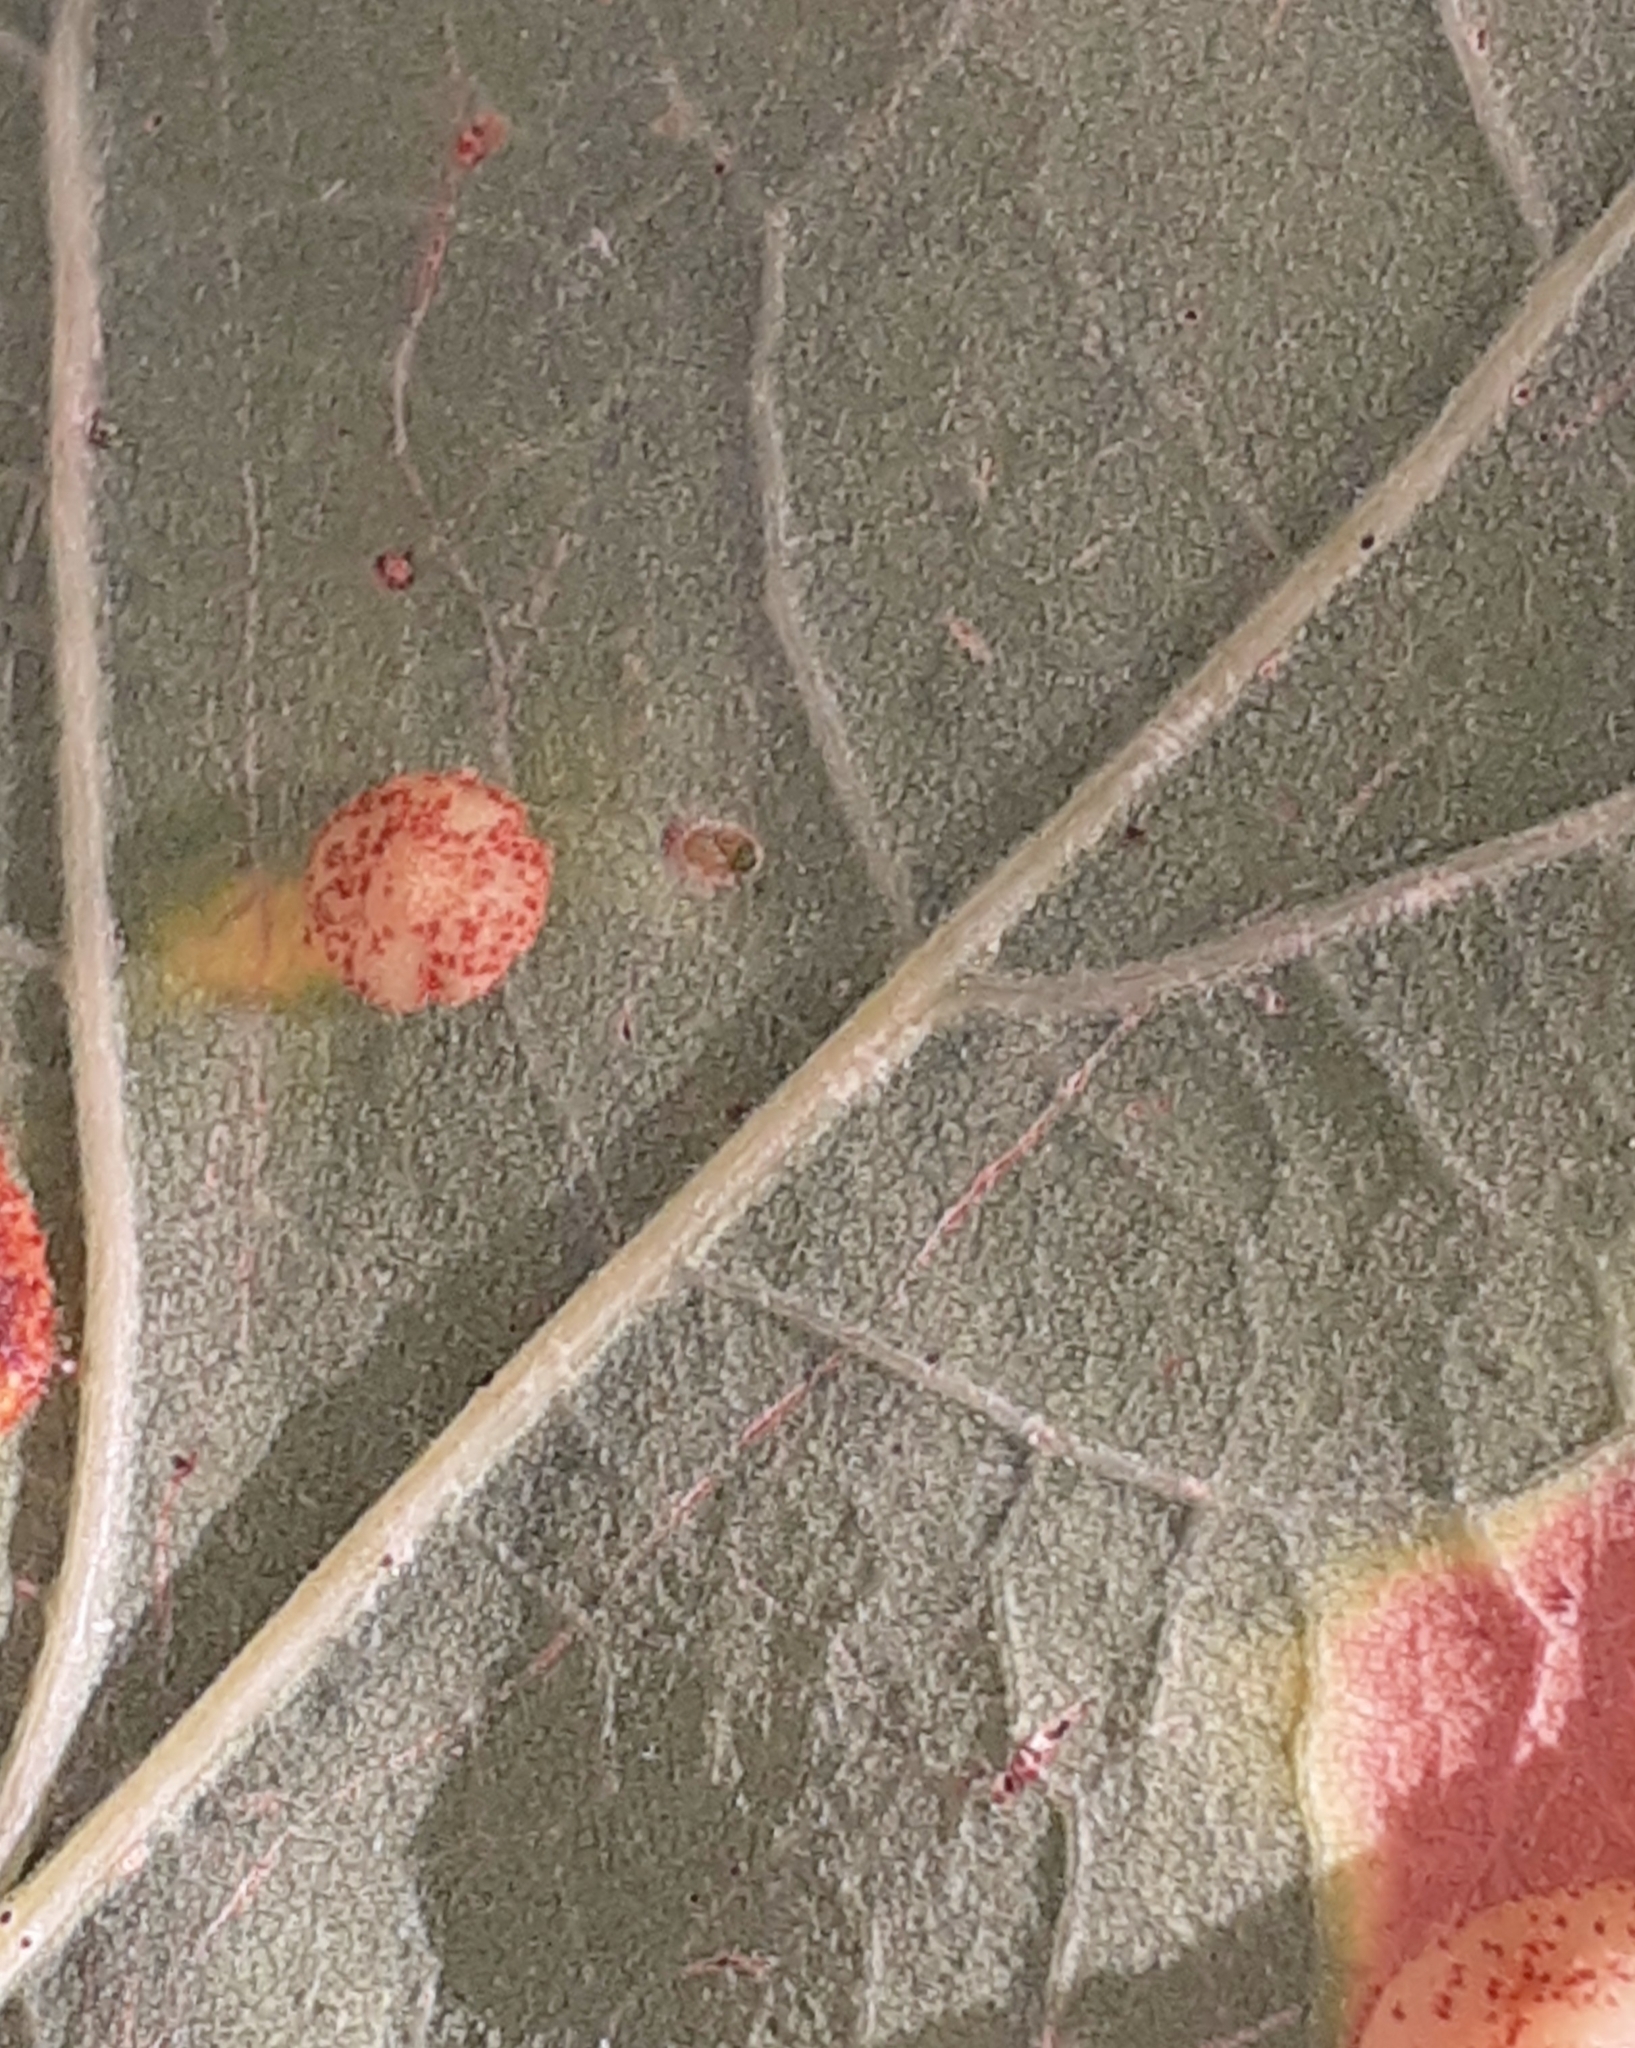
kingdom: Animalia
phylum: Arthropoda
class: Insecta
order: Hymenoptera
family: Cynipidae
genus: Neuroterus
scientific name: Neuroterus quercusbaccarum
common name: Common spangle gall
